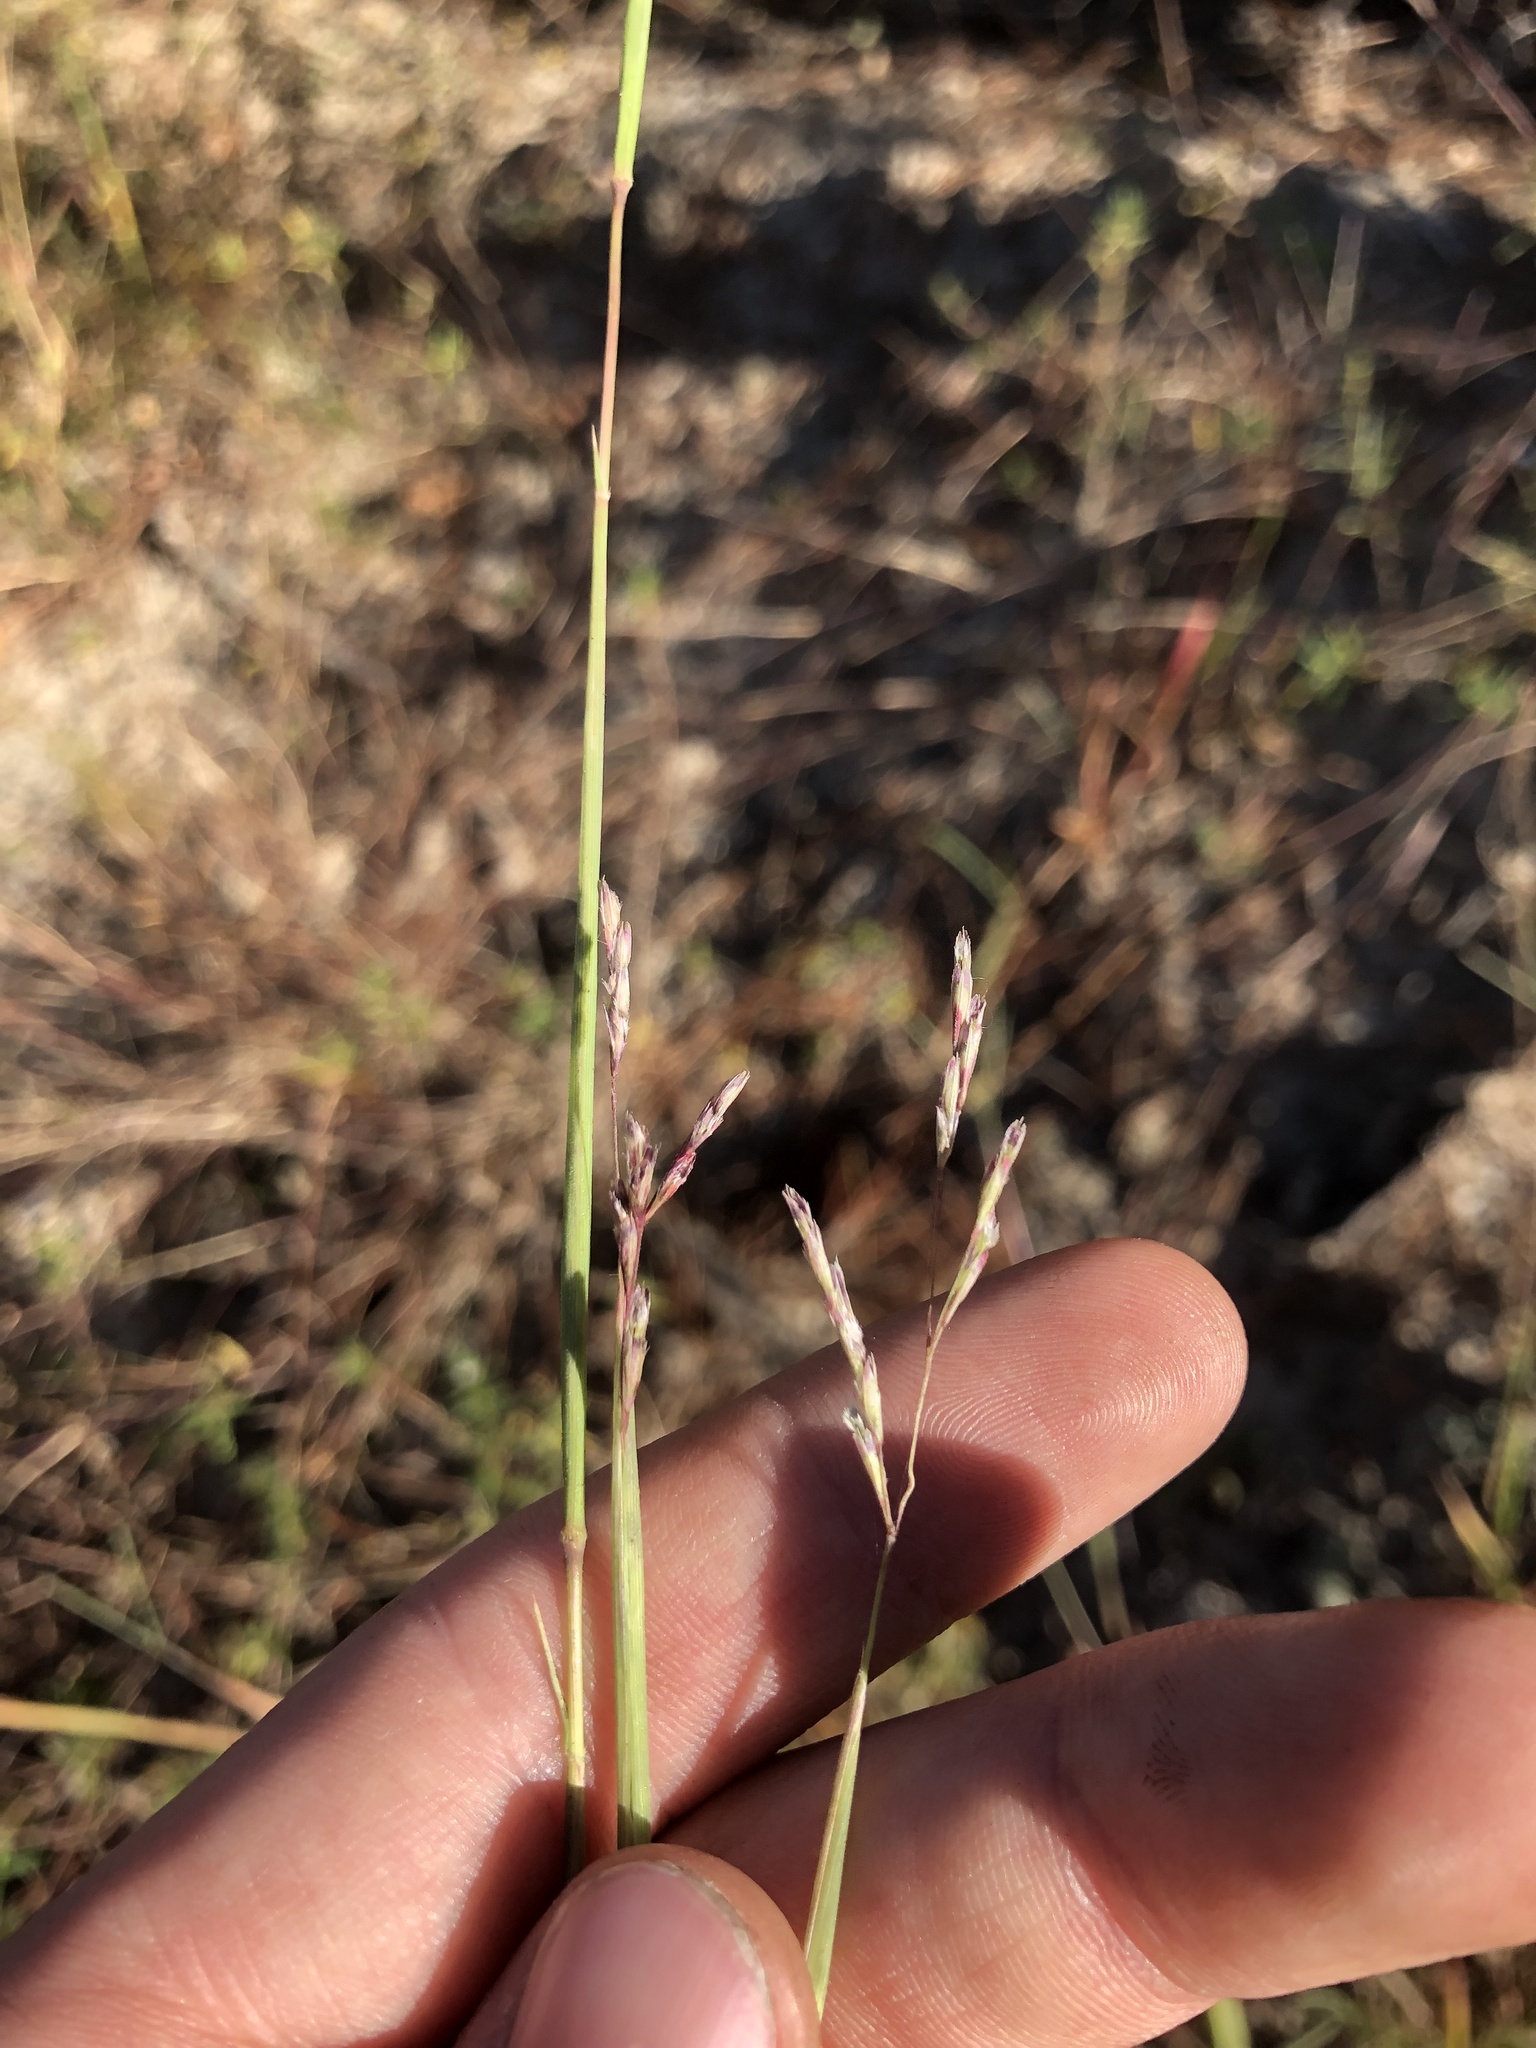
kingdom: Plantae
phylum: Tracheophyta
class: Liliopsida
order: Poales
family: Poaceae
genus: Triplasis
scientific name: Triplasis purpurea
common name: Purple sand grass
